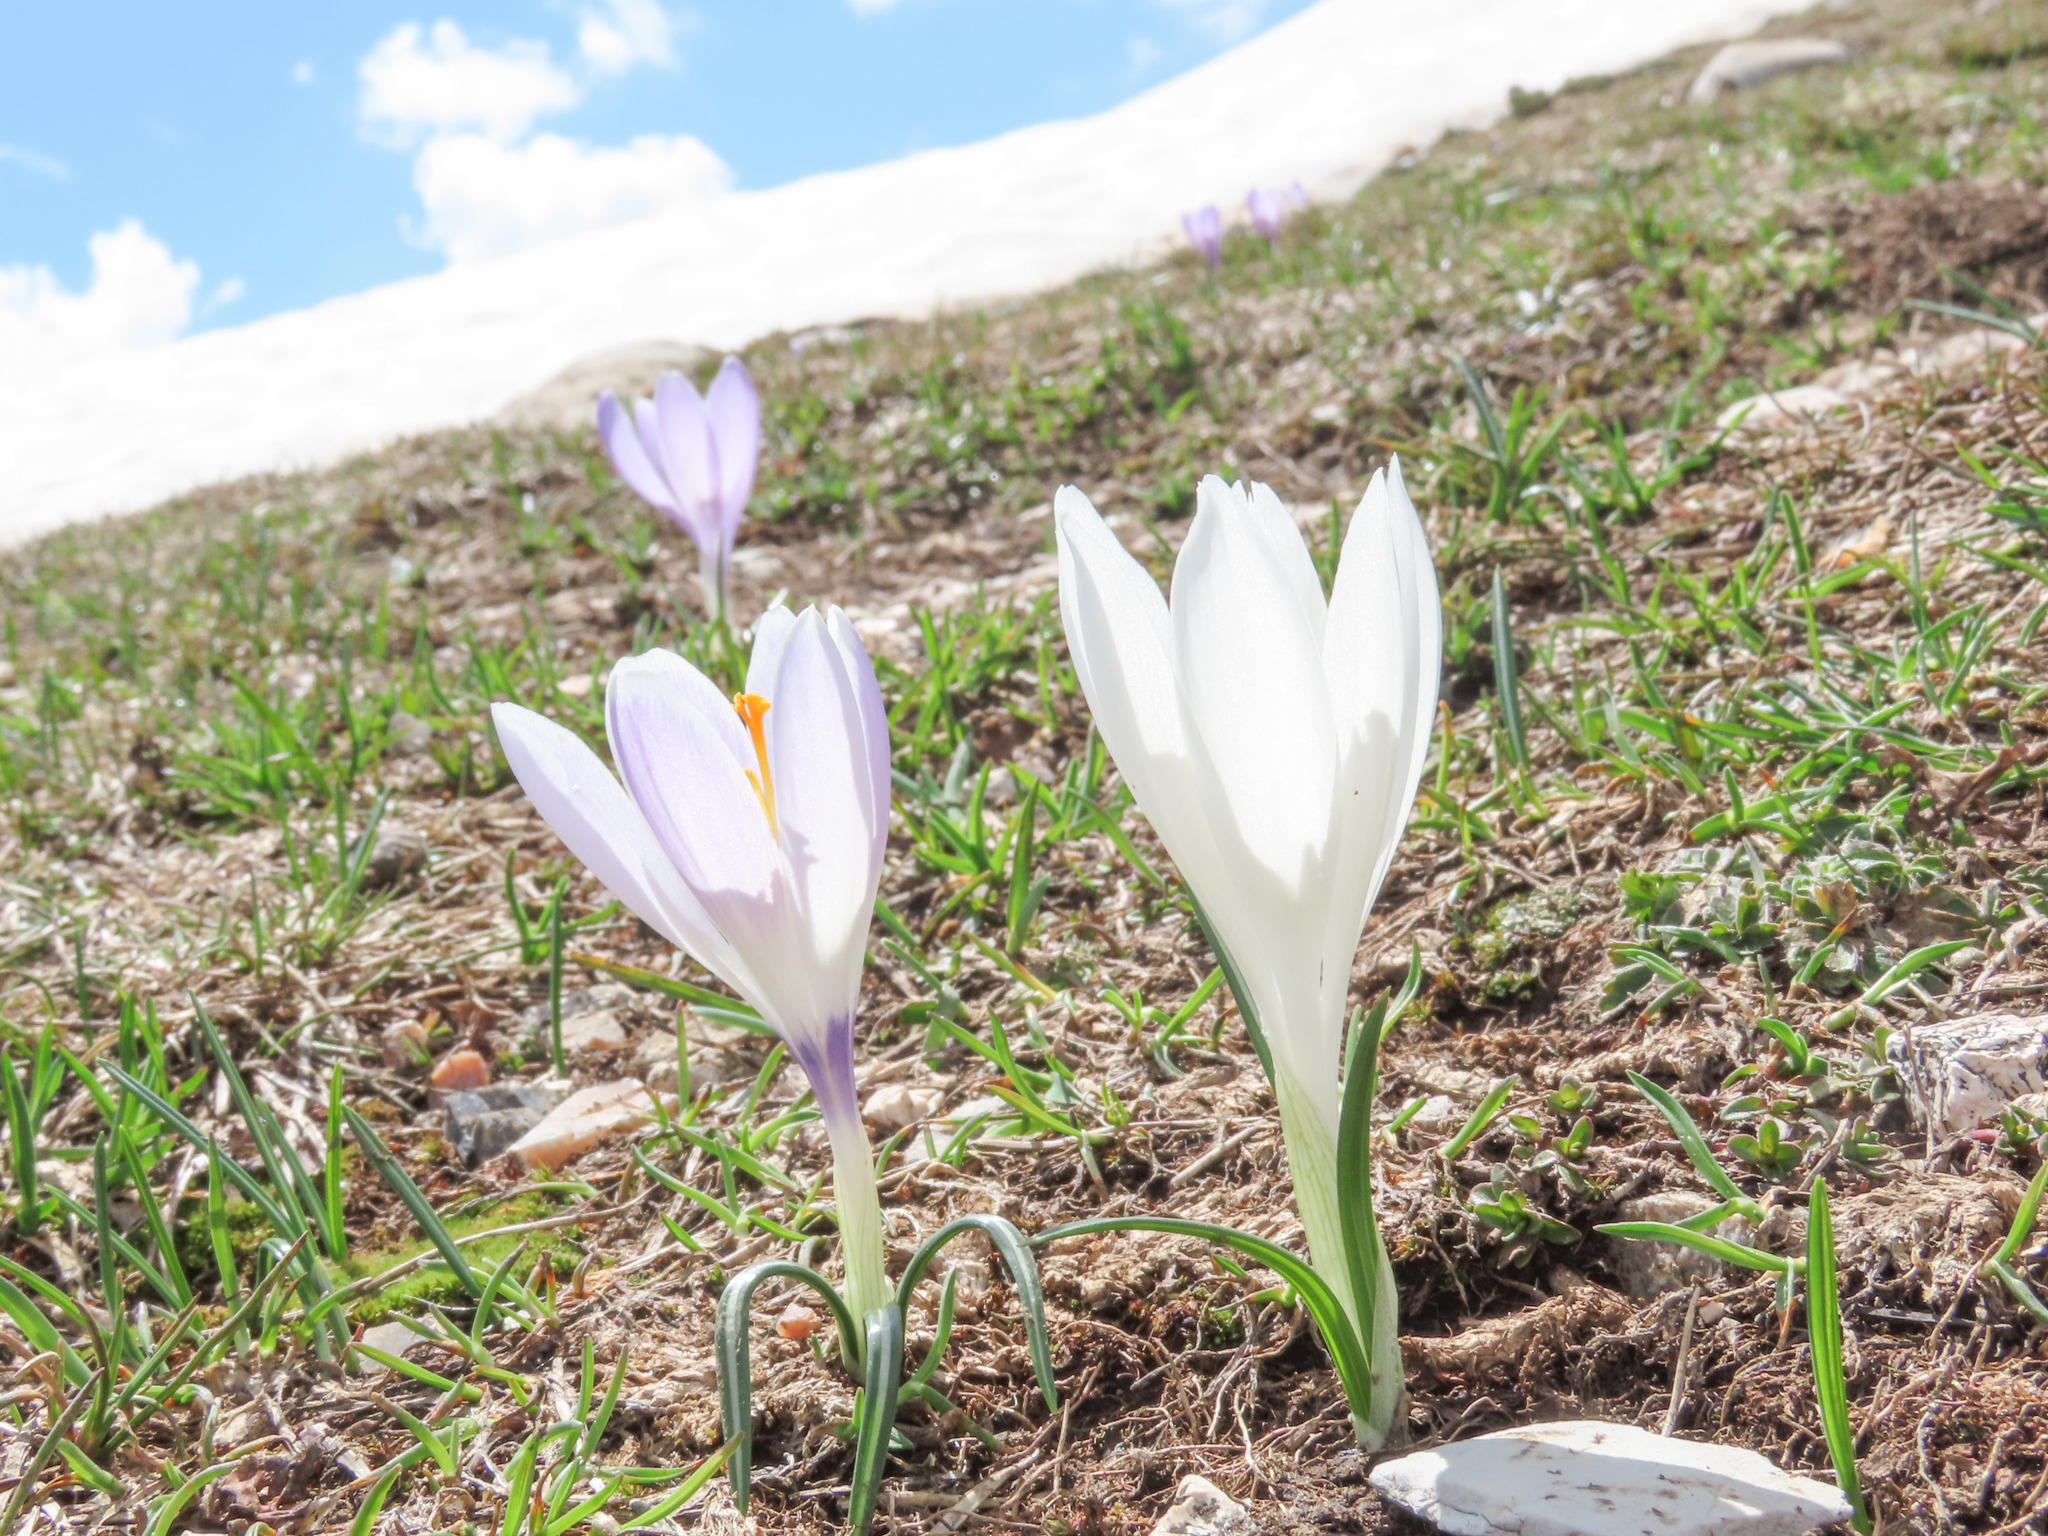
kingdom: Plantae
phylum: Tracheophyta
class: Liliopsida
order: Asparagales
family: Iridaceae
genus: Crocus
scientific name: Crocus neapolitanus
